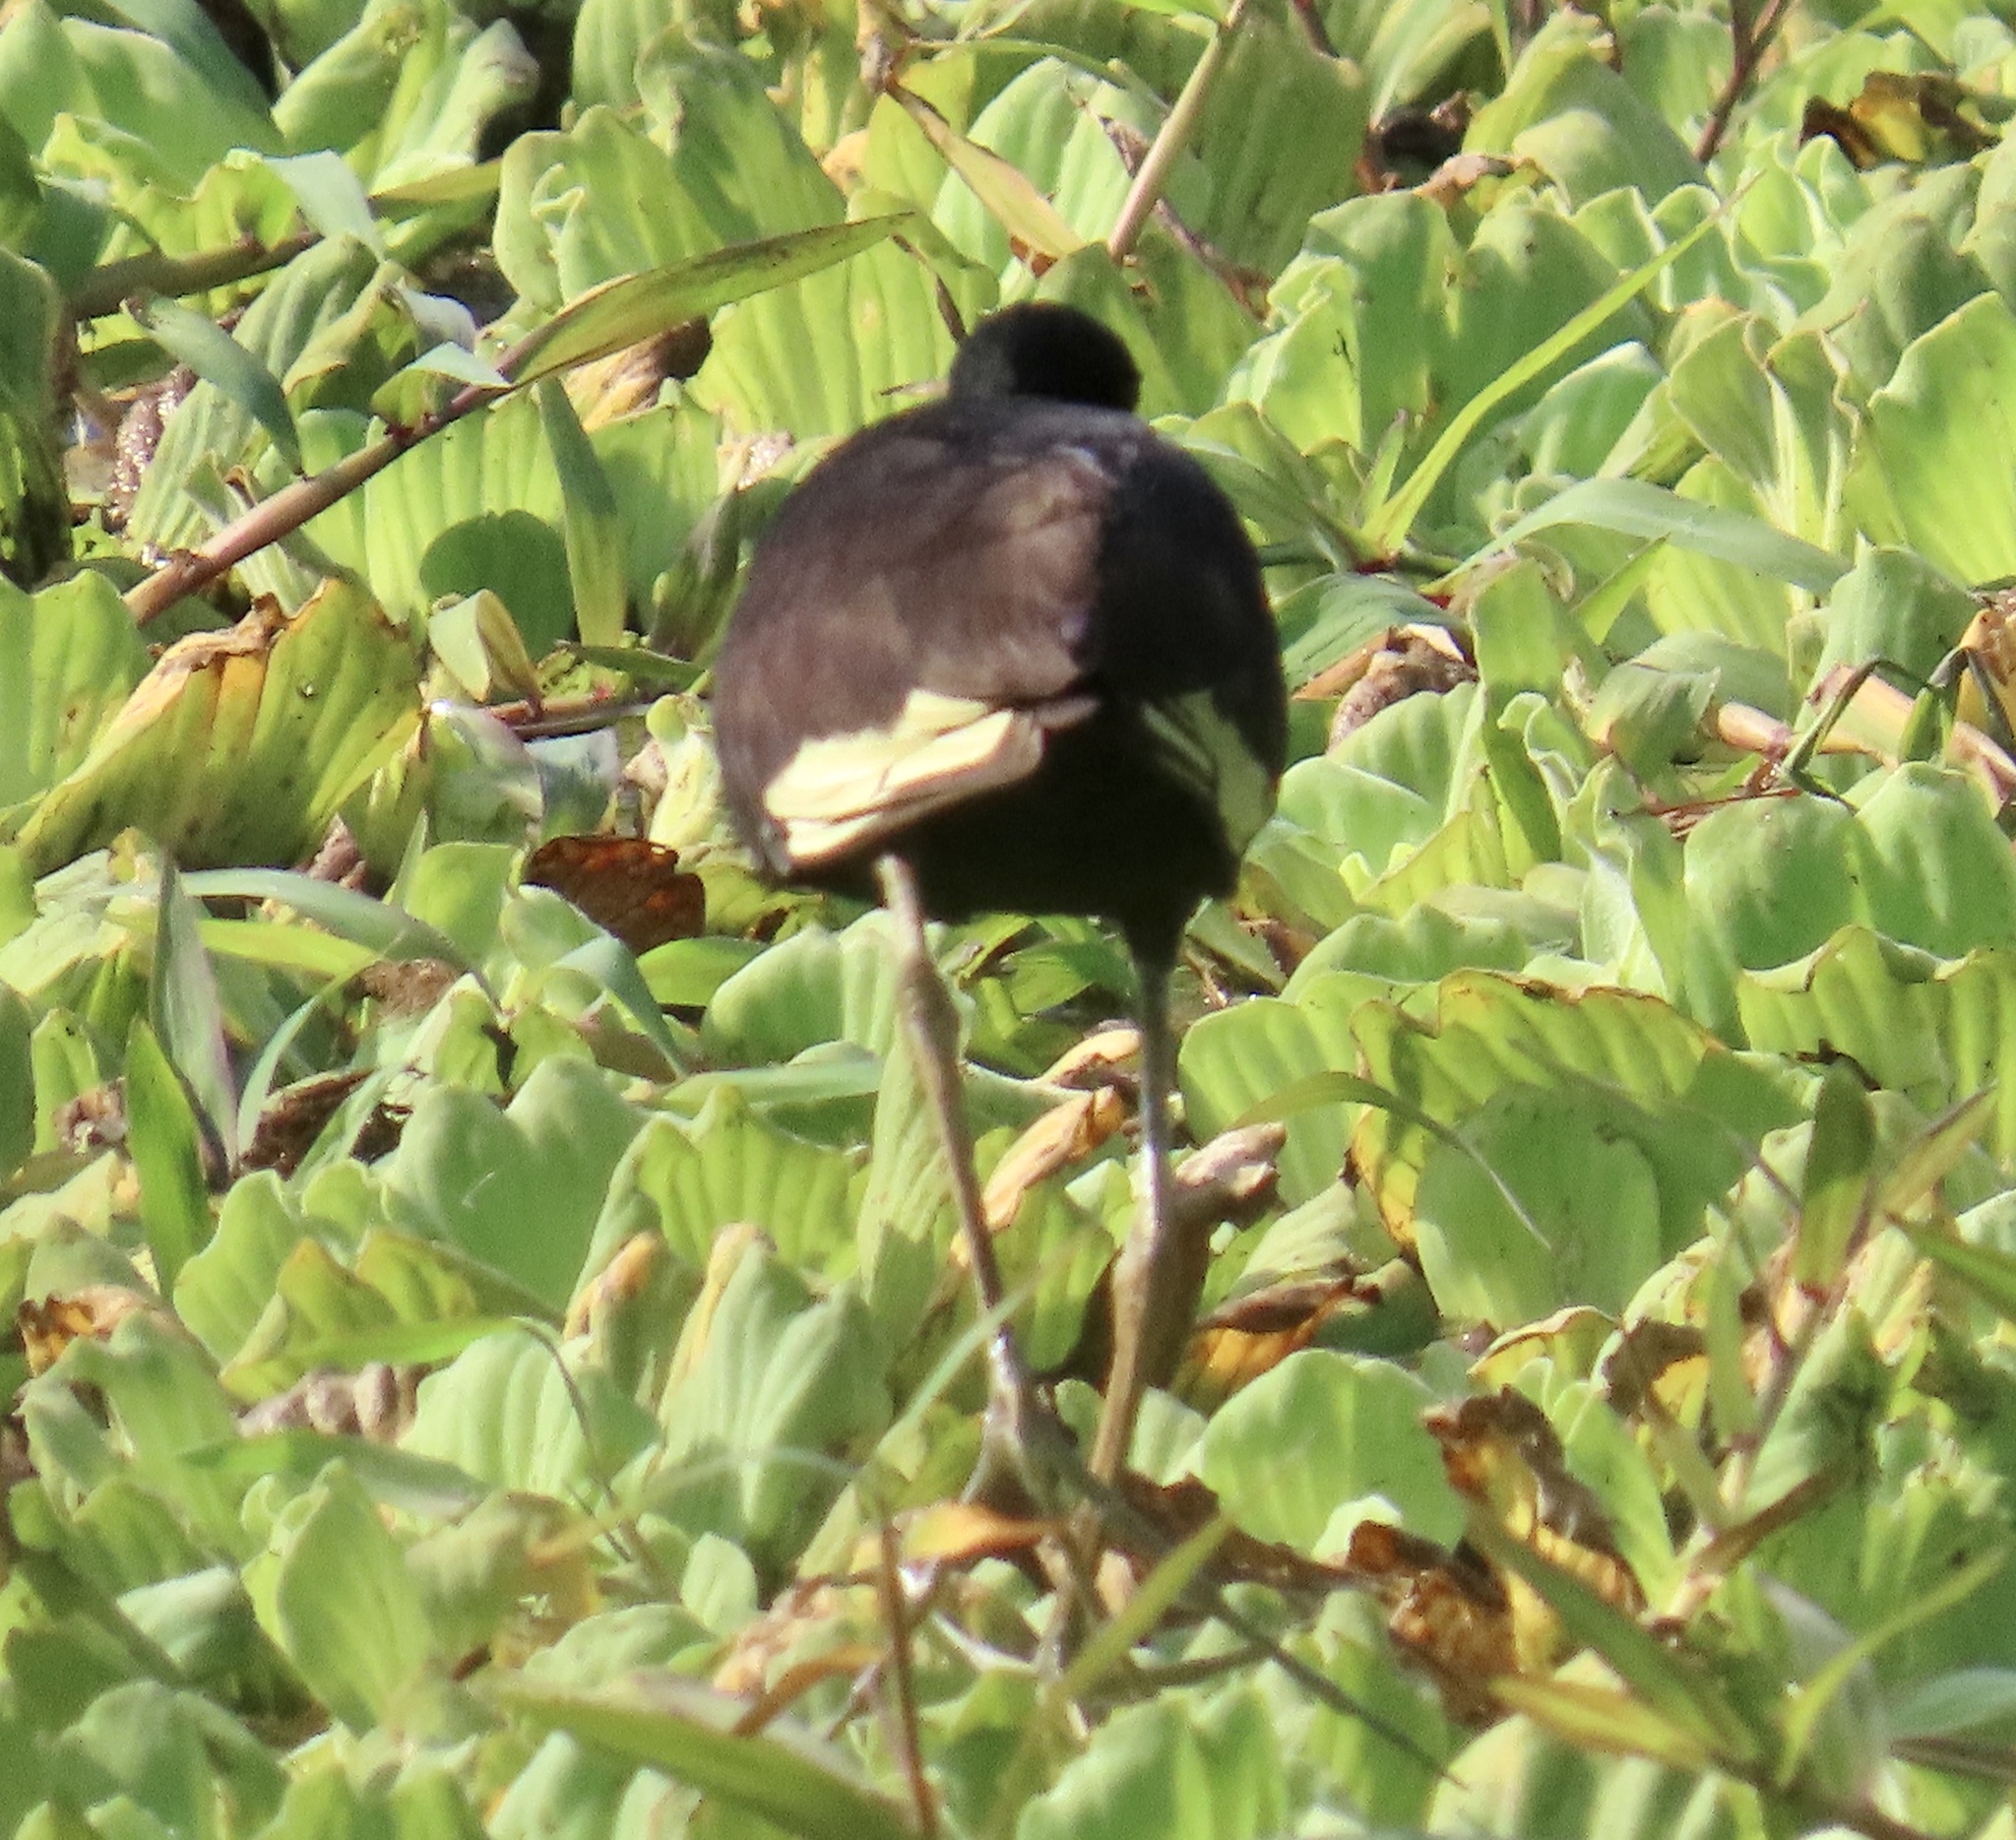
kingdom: Animalia
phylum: Chordata
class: Aves
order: Charadriiformes
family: Jacanidae
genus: Jacana
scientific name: Jacana jacana
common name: Wattled jacana
